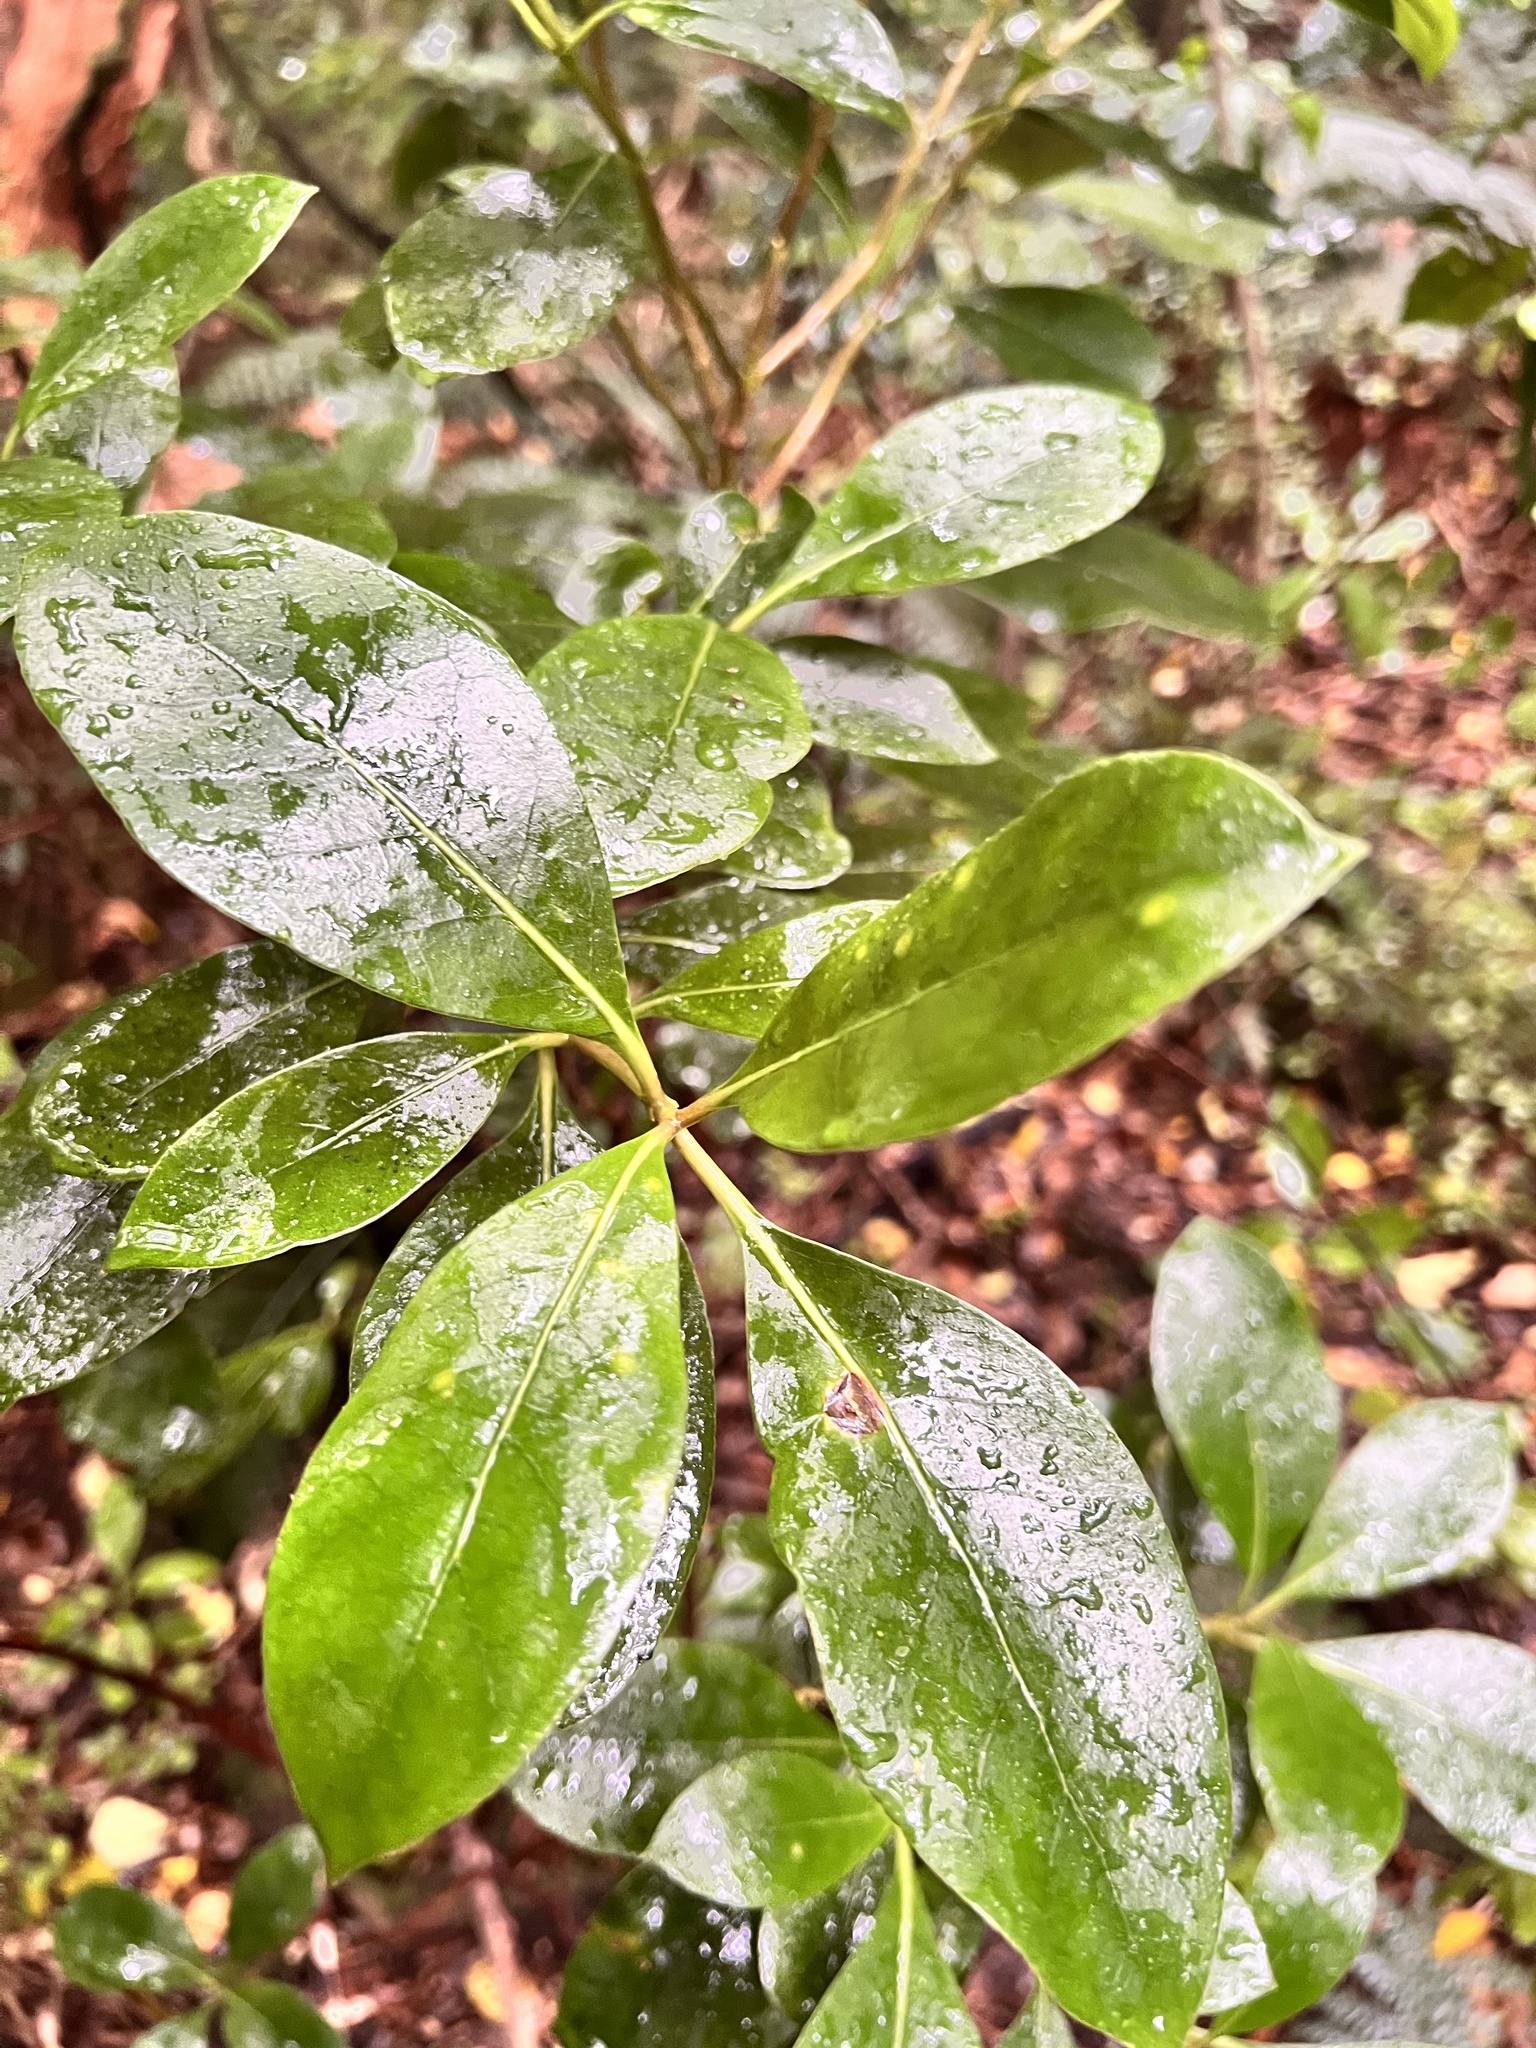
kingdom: Fungi
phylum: Basidiomycota
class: Pucciniomycetes
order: Pucciniales
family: Pucciniaceae
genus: Puccinia
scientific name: Puccinia coprosmae
